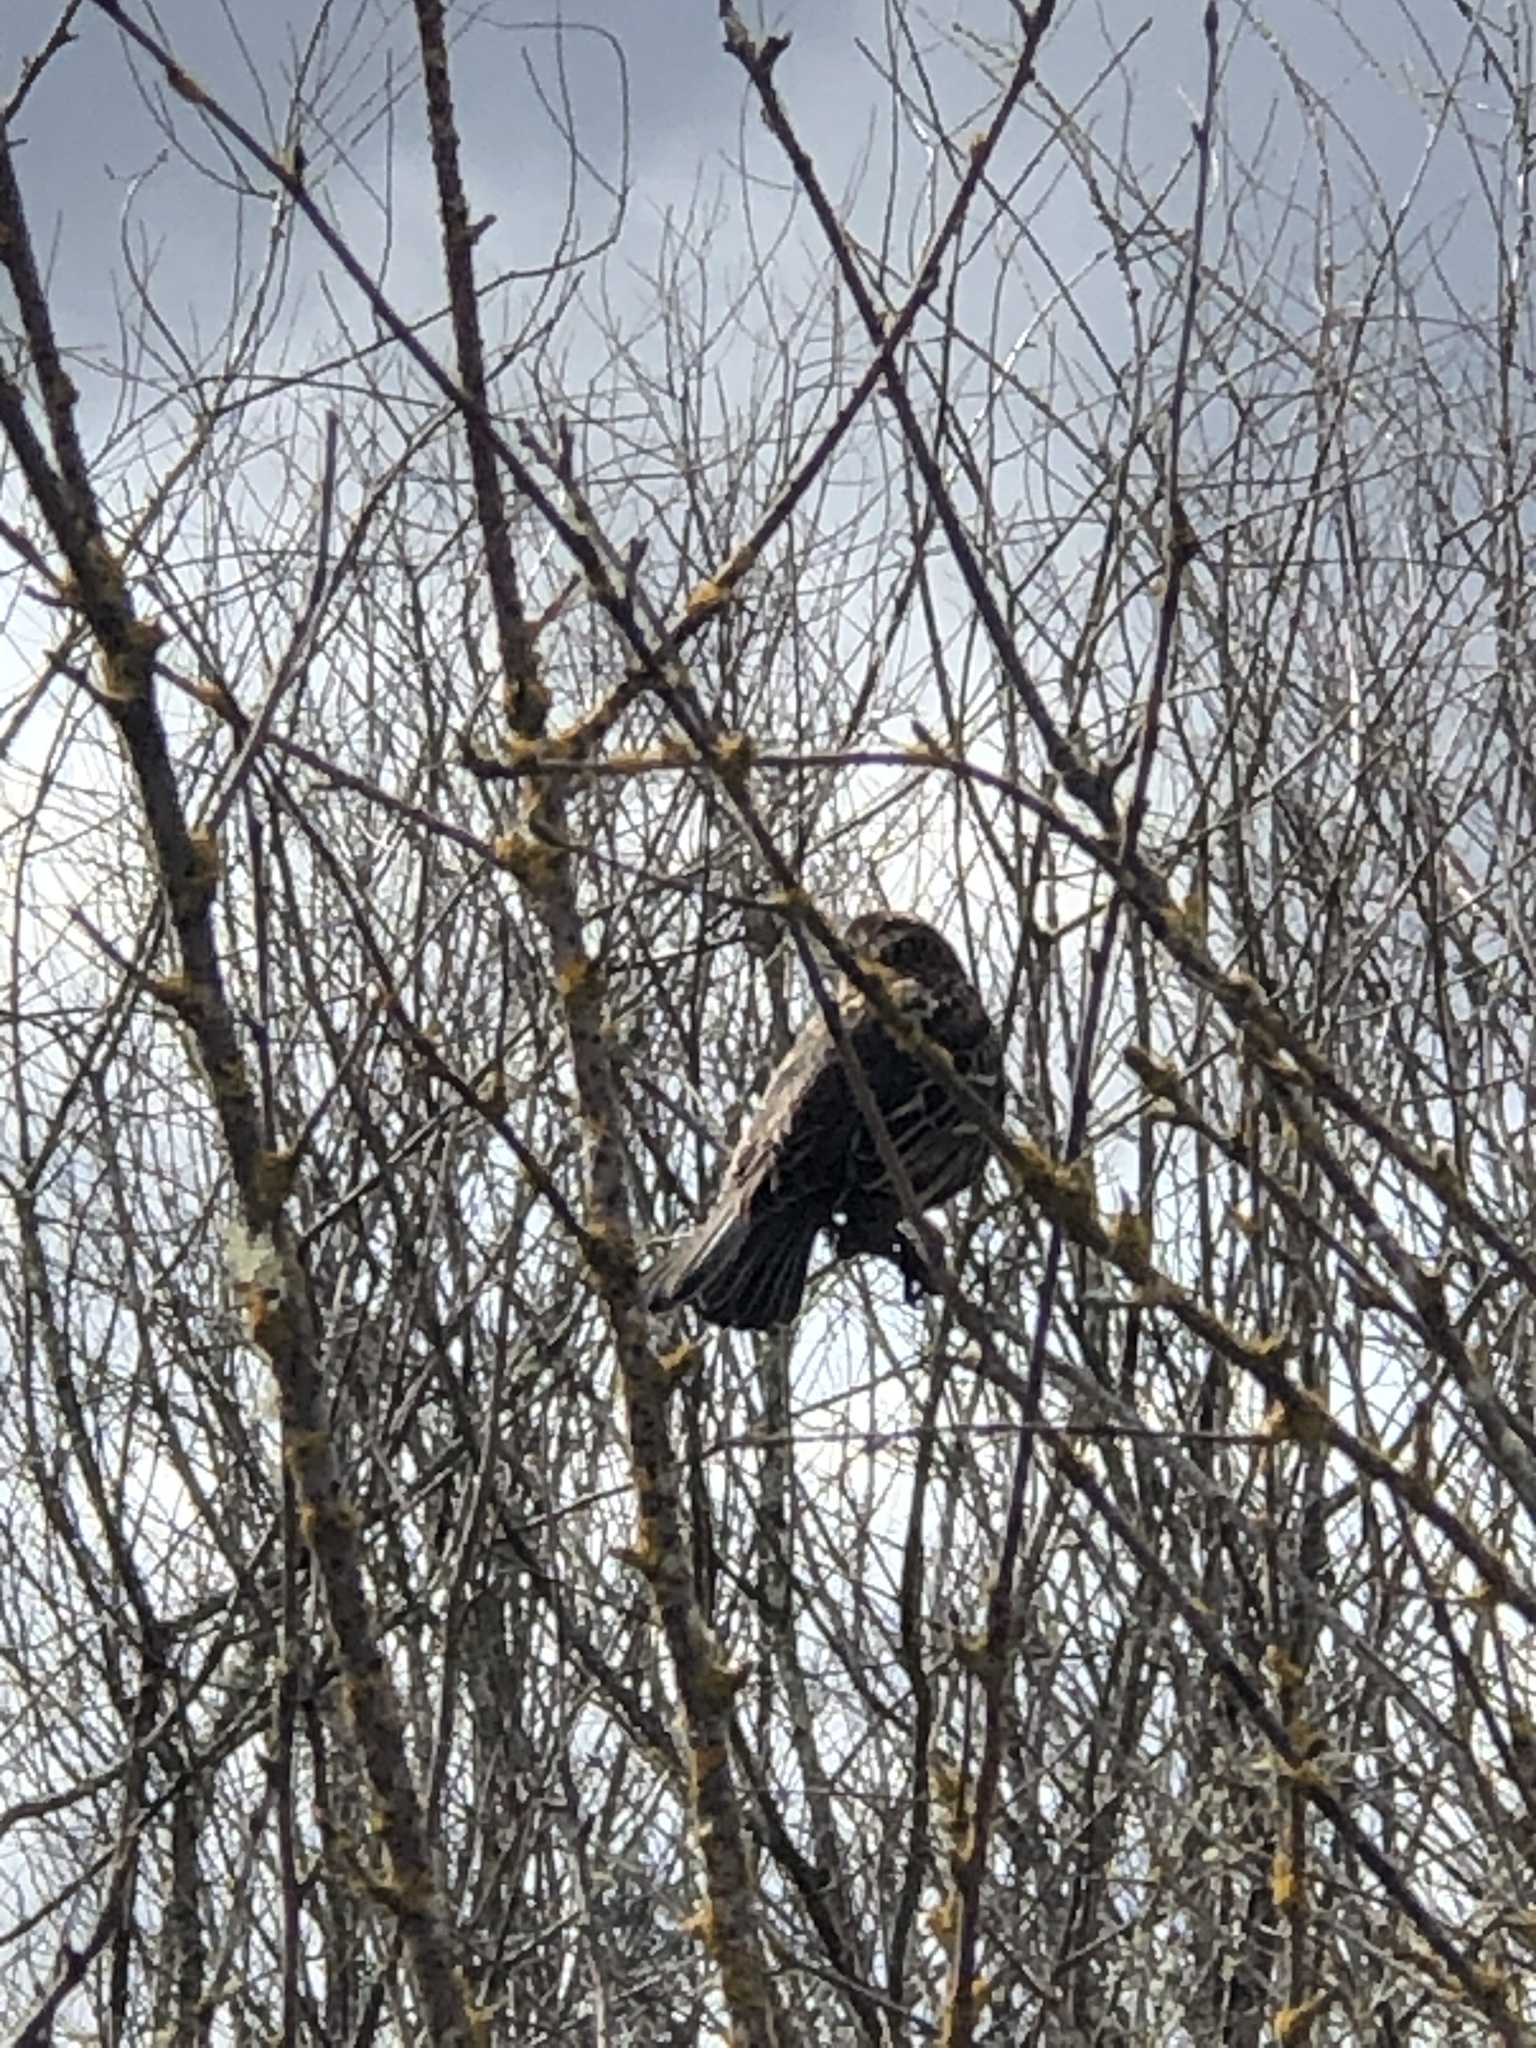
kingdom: Animalia
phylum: Chordata
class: Aves
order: Passeriformes
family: Icteridae
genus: Agelaius
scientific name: Agelaius phoeniceus
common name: Red-winged blackbird
